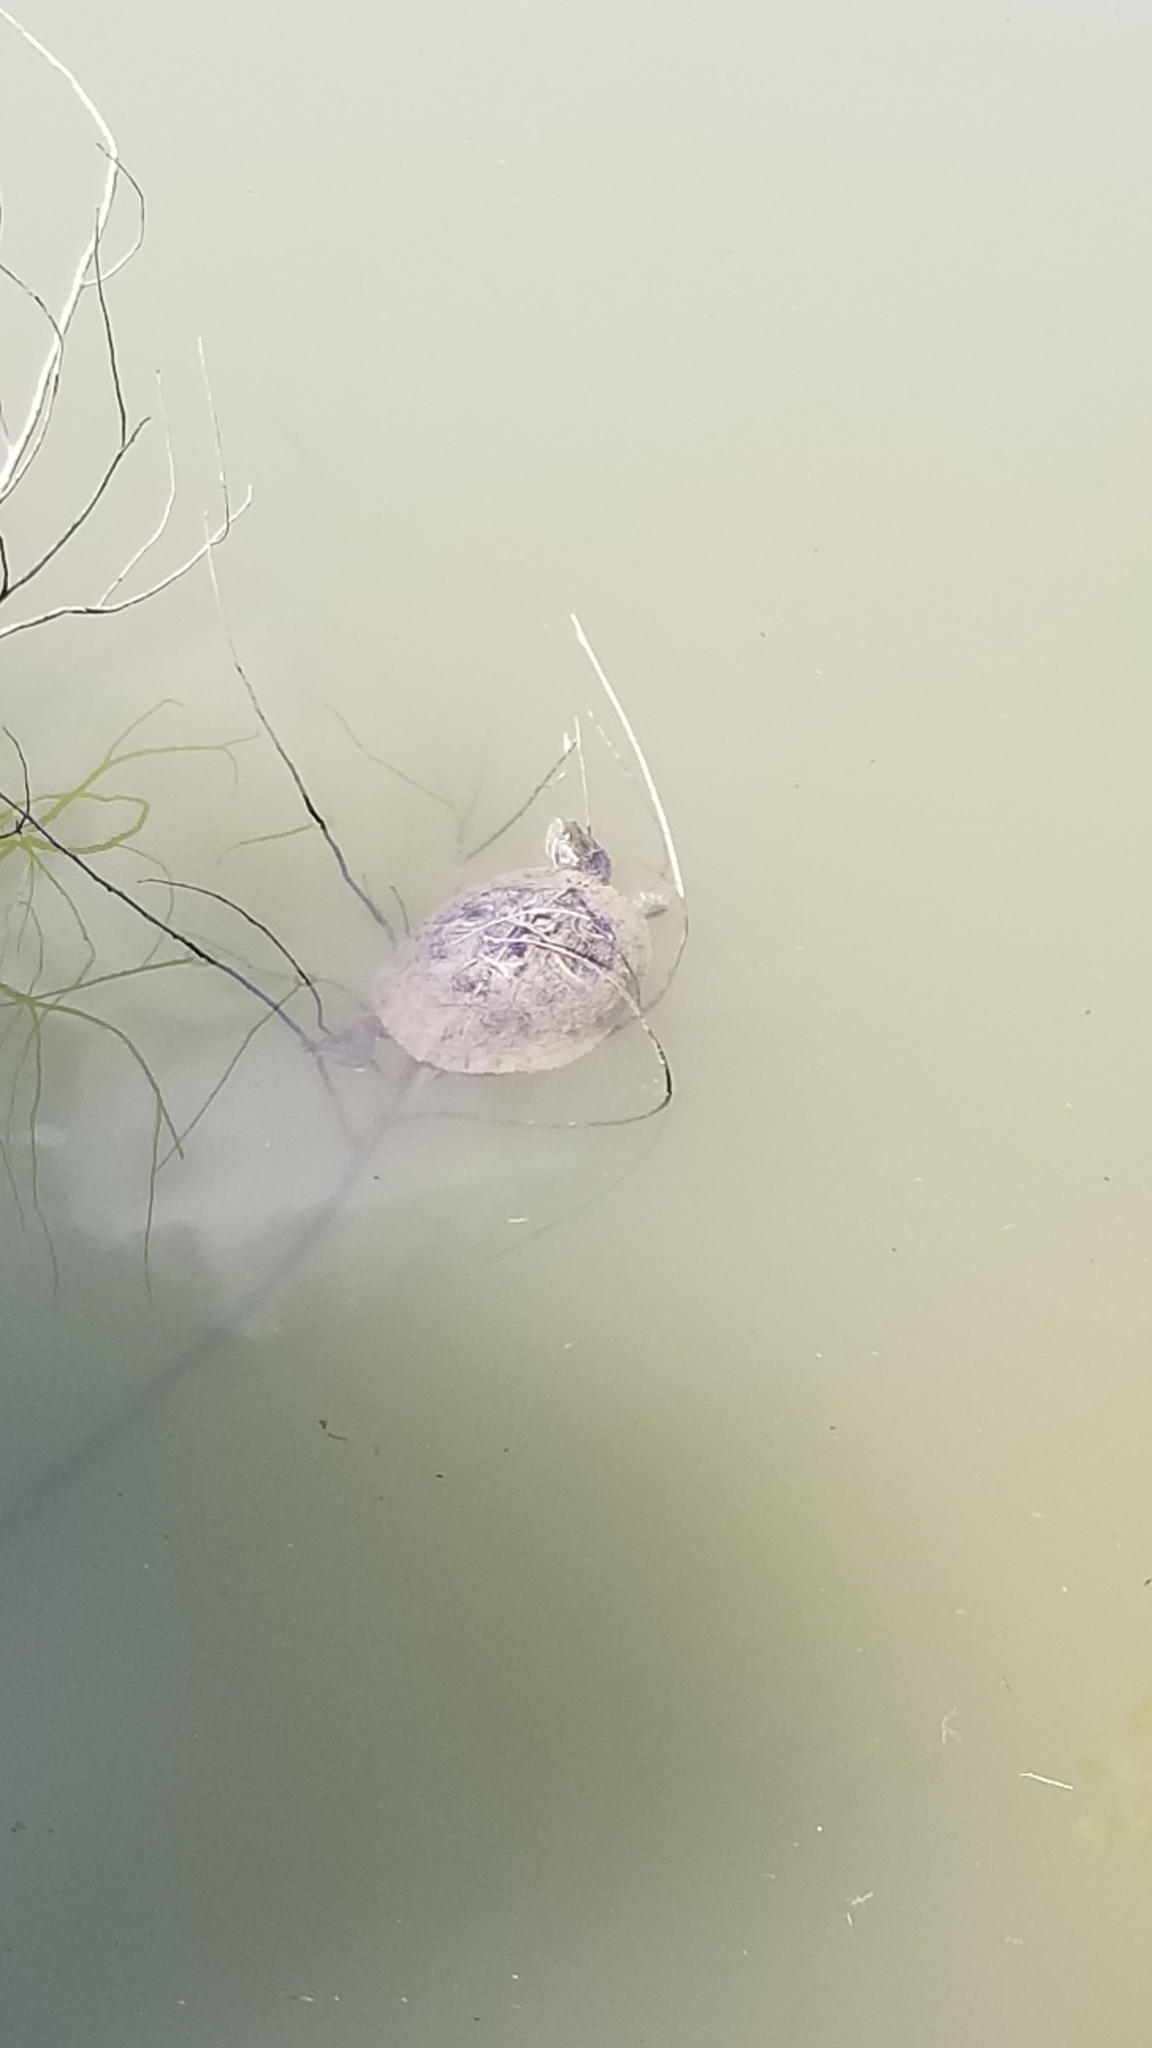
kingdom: Animalia
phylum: Chordata
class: Testudines
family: Emydidae
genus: Trachemys
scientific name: Trachemys scripta
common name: Slider
